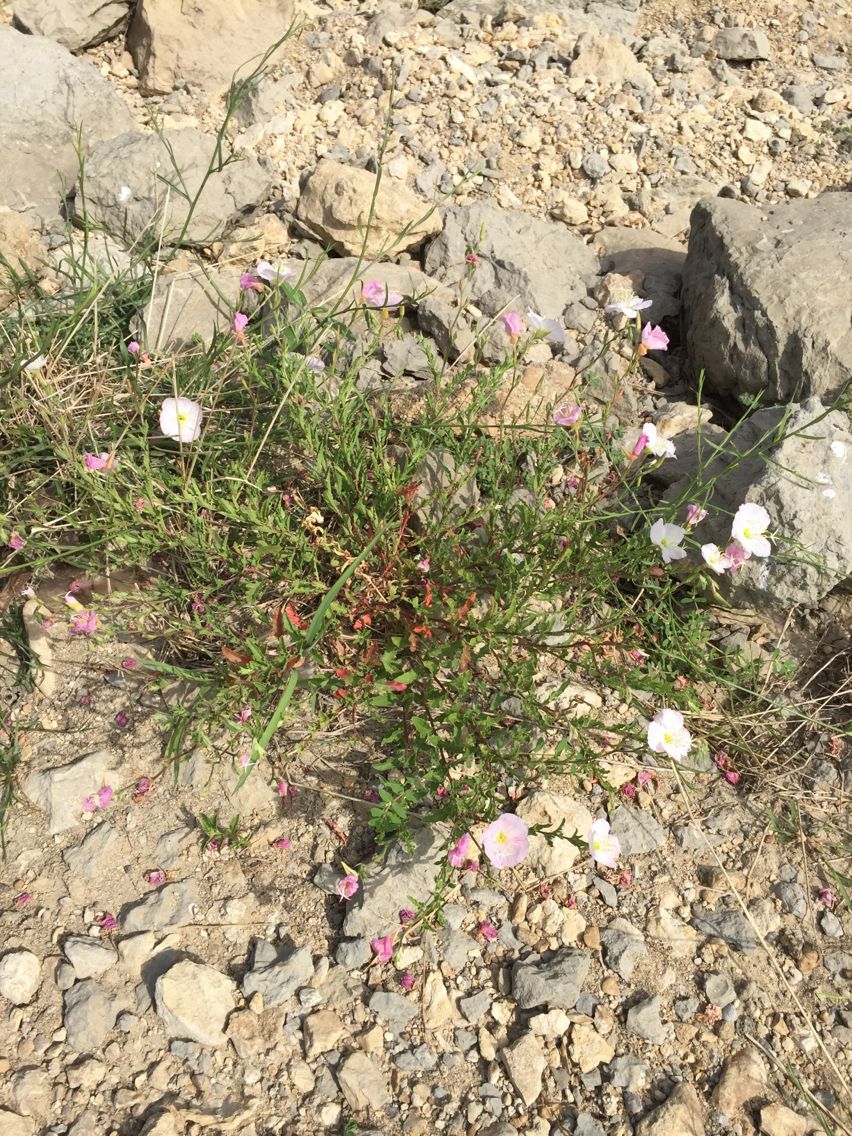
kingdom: Plantae
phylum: Tracheophyta
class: Magnoliopsida
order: Myrtales
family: Onagraceae
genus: Oenothera
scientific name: Oenothera speciosa
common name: White evening-primrose
